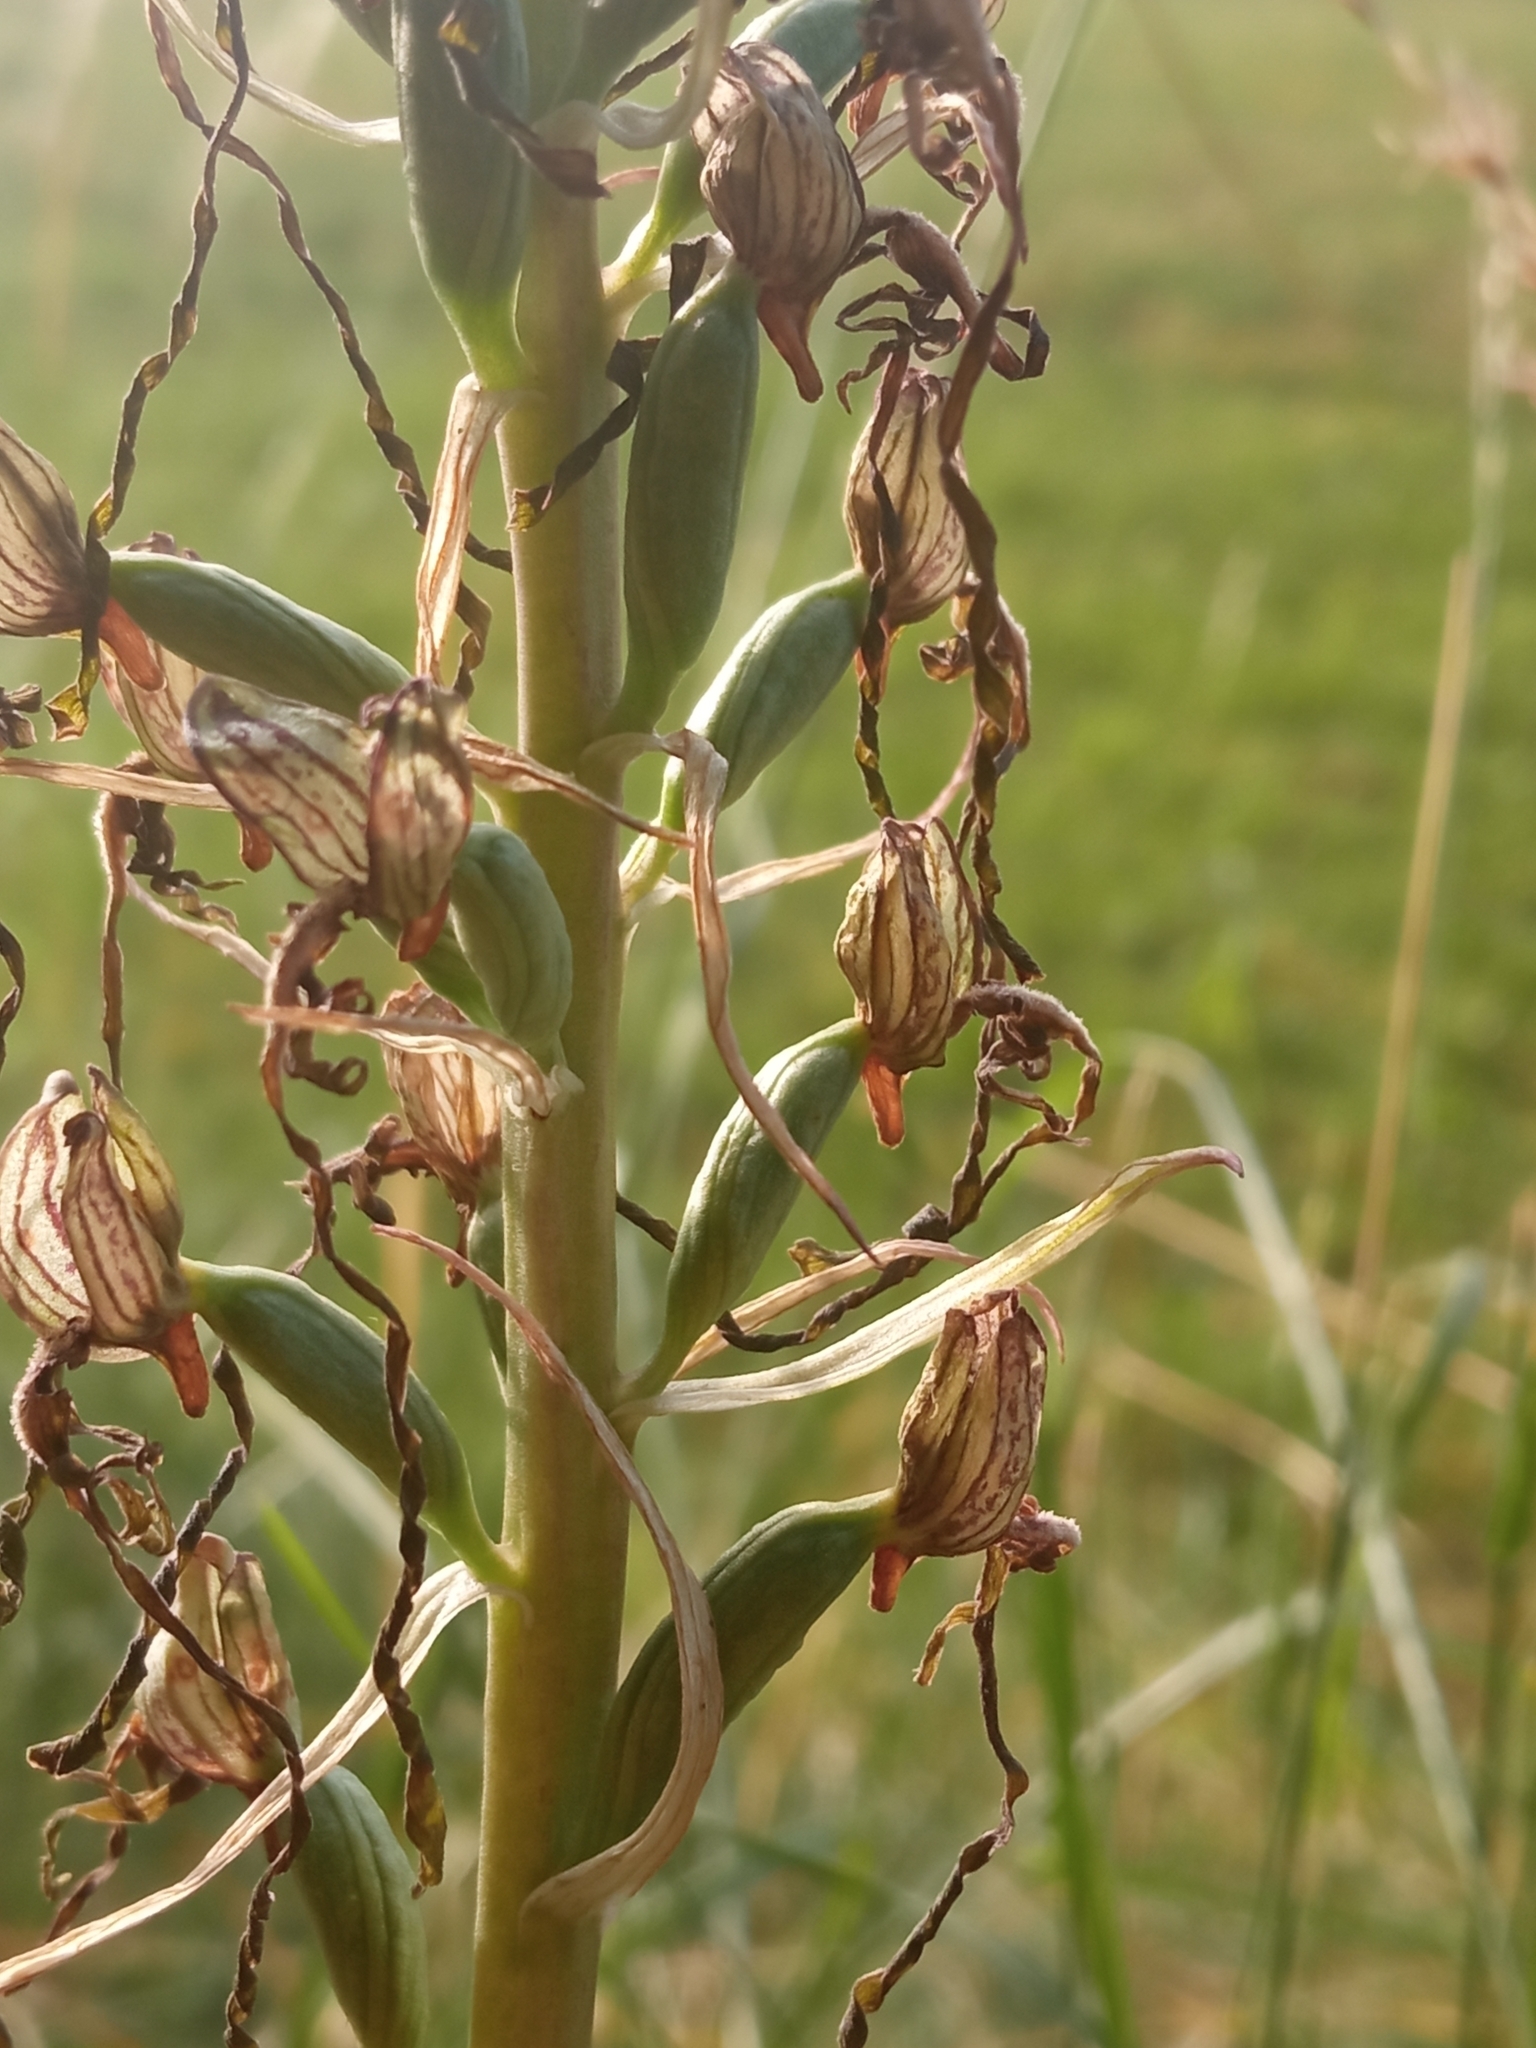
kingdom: Plantae
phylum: Tracheophyta
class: Liliopsida
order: Asparagales
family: Orchidaceae
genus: Himantoglossum
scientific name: Himantoglossum hircinum
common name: Lizard orchid
